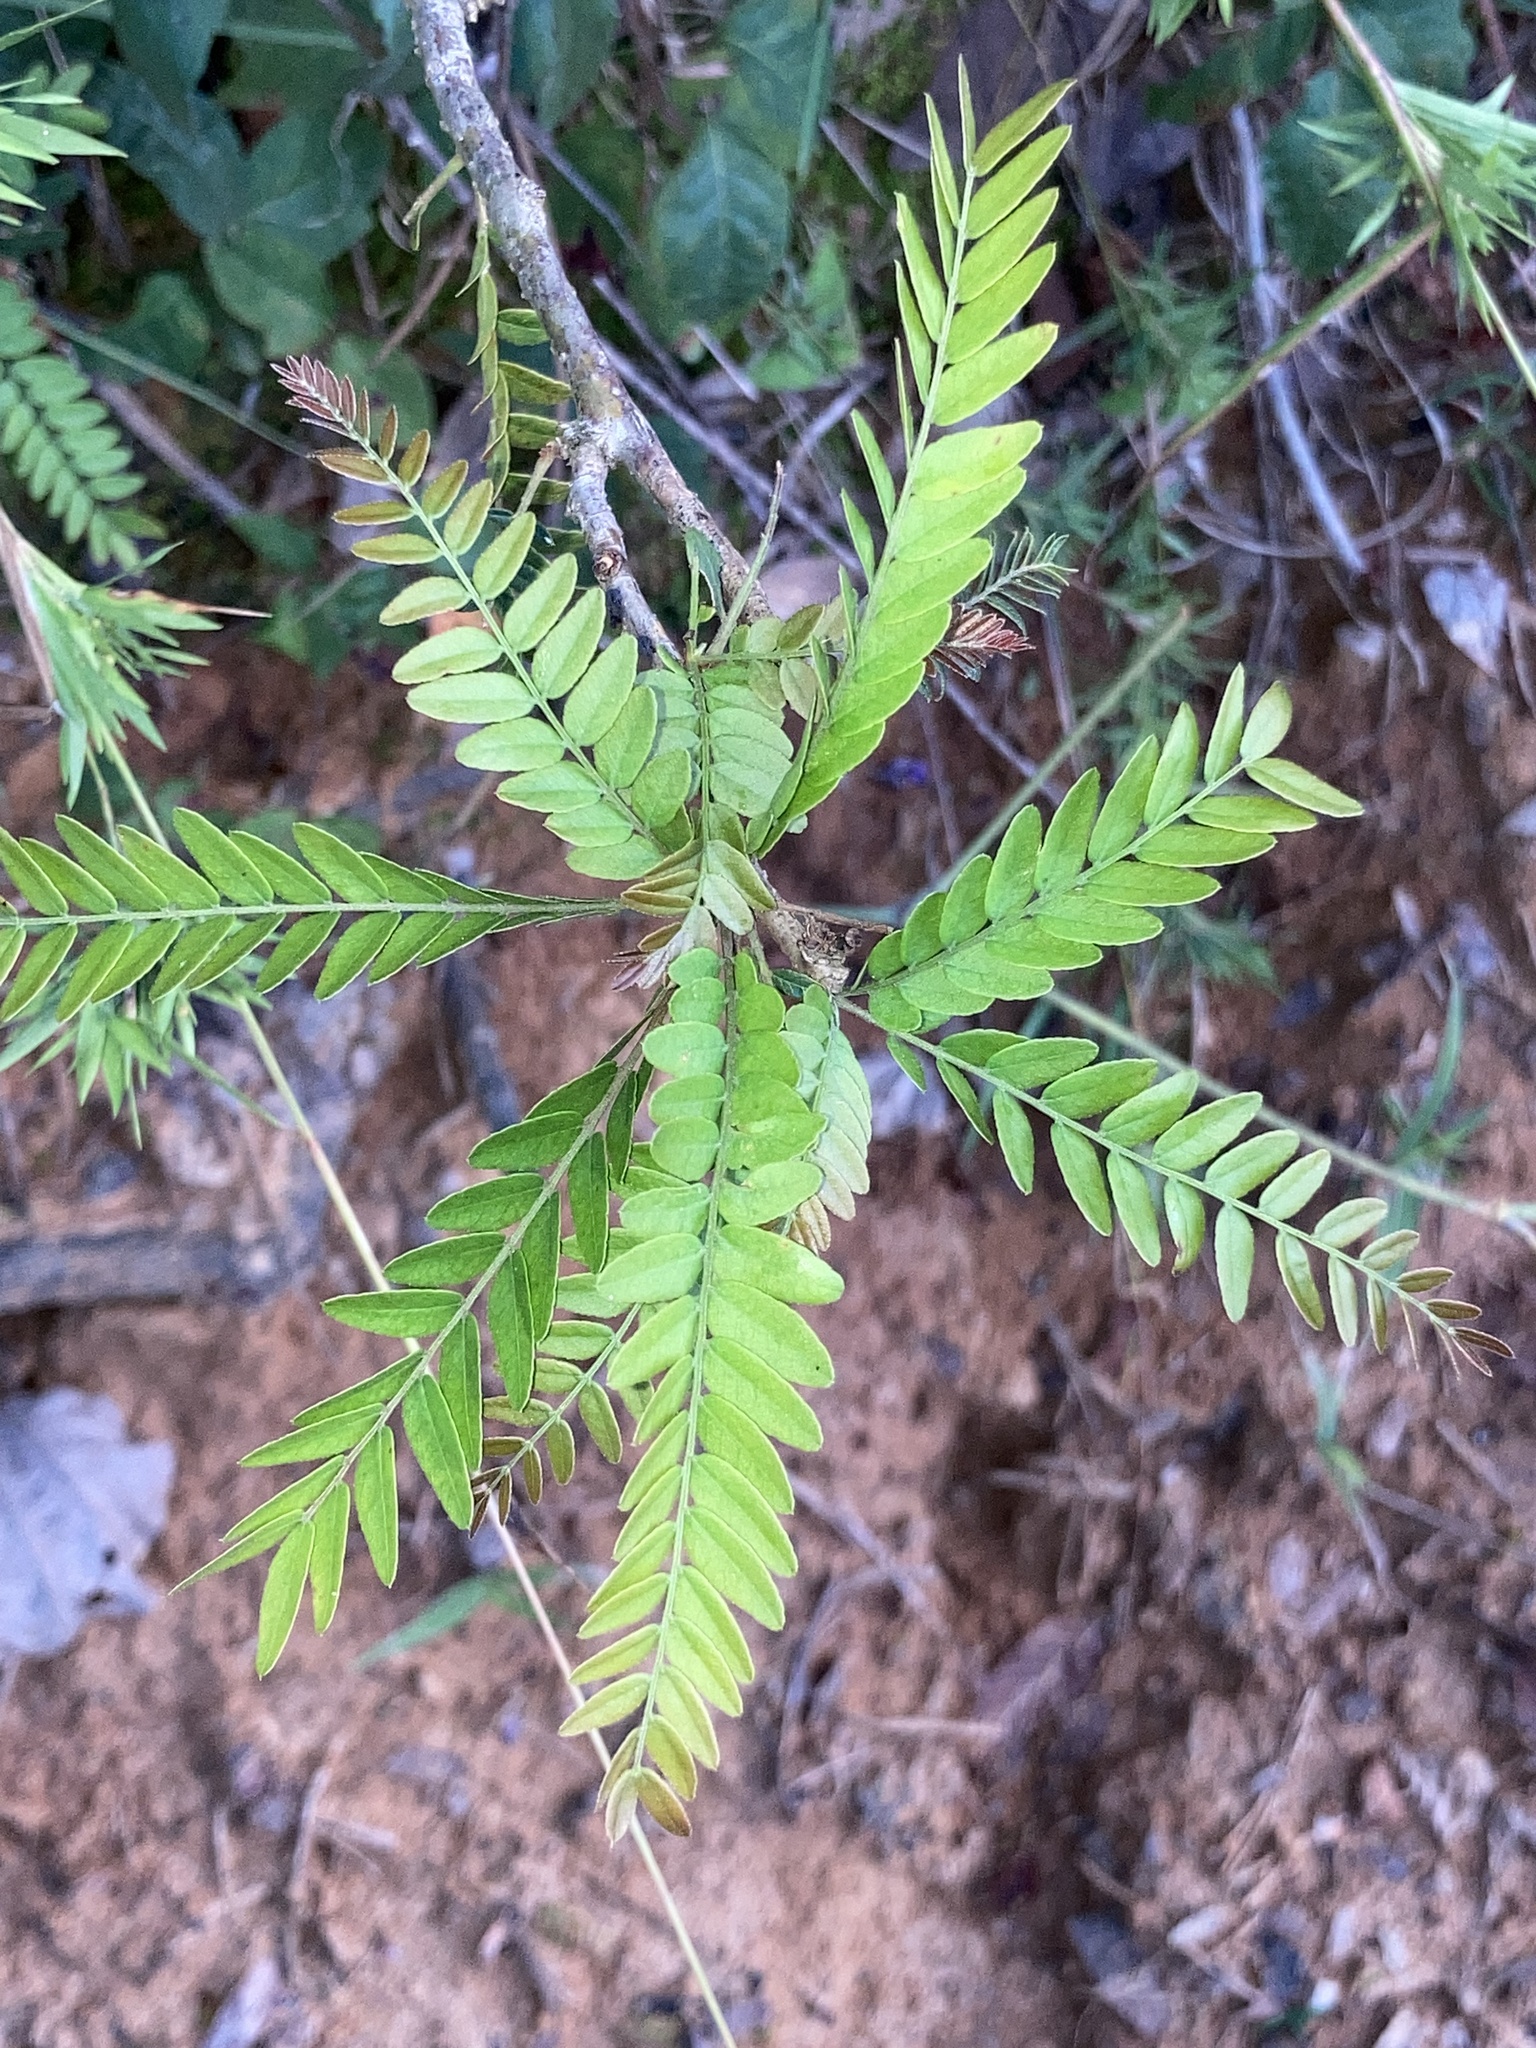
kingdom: Plantae
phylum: Tracheophyta
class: Magnoliopsida
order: Fabales
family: Fabaceae
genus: Gleditsia
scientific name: Gleditsia triacanthos
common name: Common honeylocust
